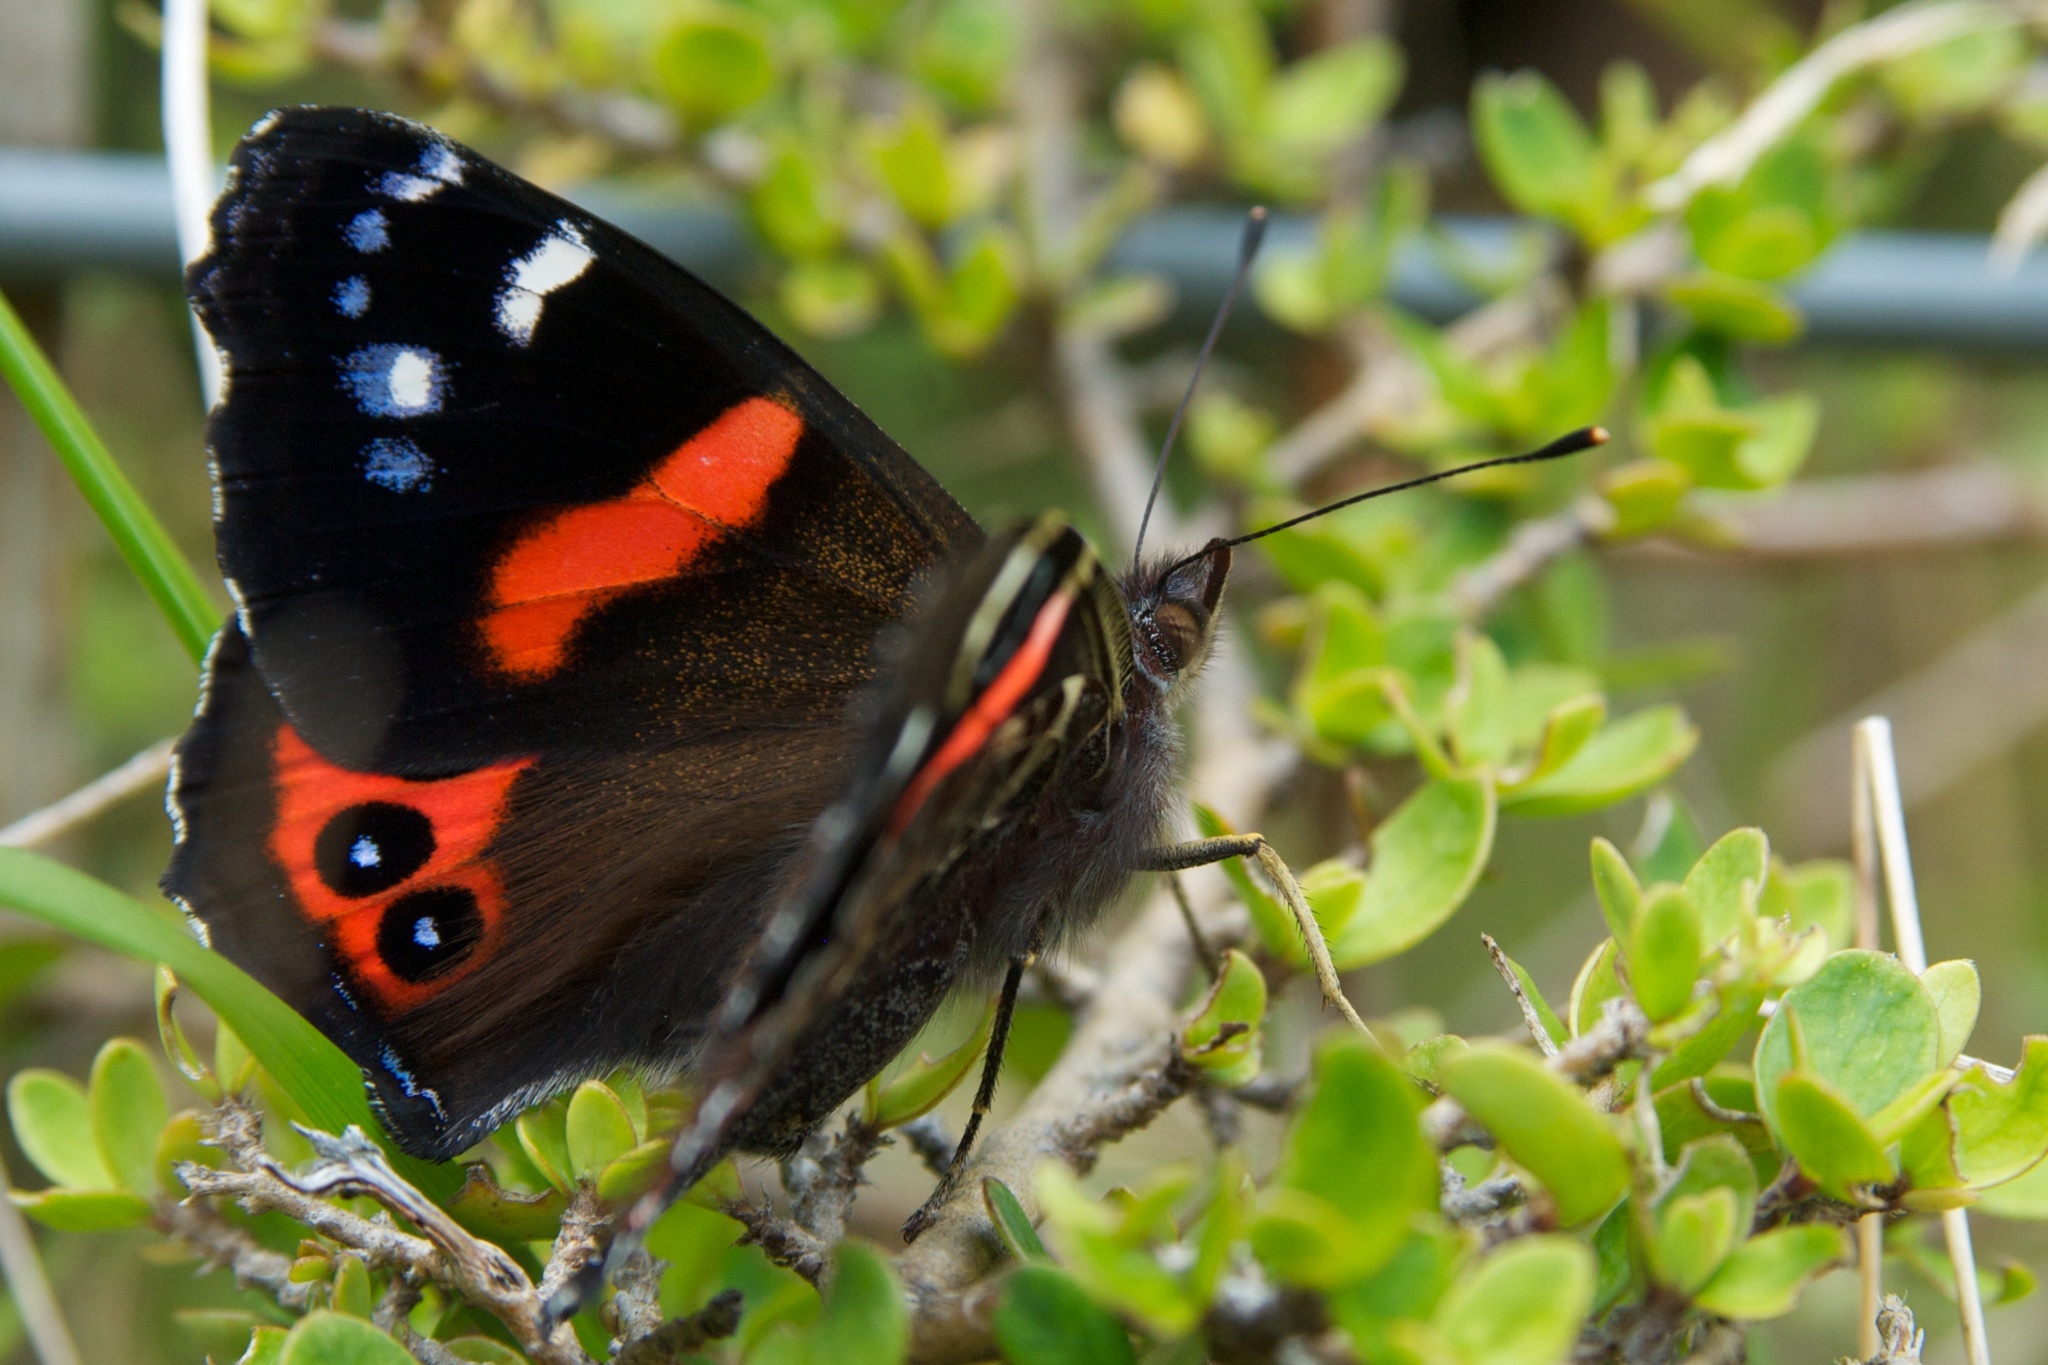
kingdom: Animalia
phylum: Arthropoda
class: Insecta
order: Lepidoptera
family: Nymphalidae
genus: Vanessa
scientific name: Vanessa gonerilla
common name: New zealand red admiral
